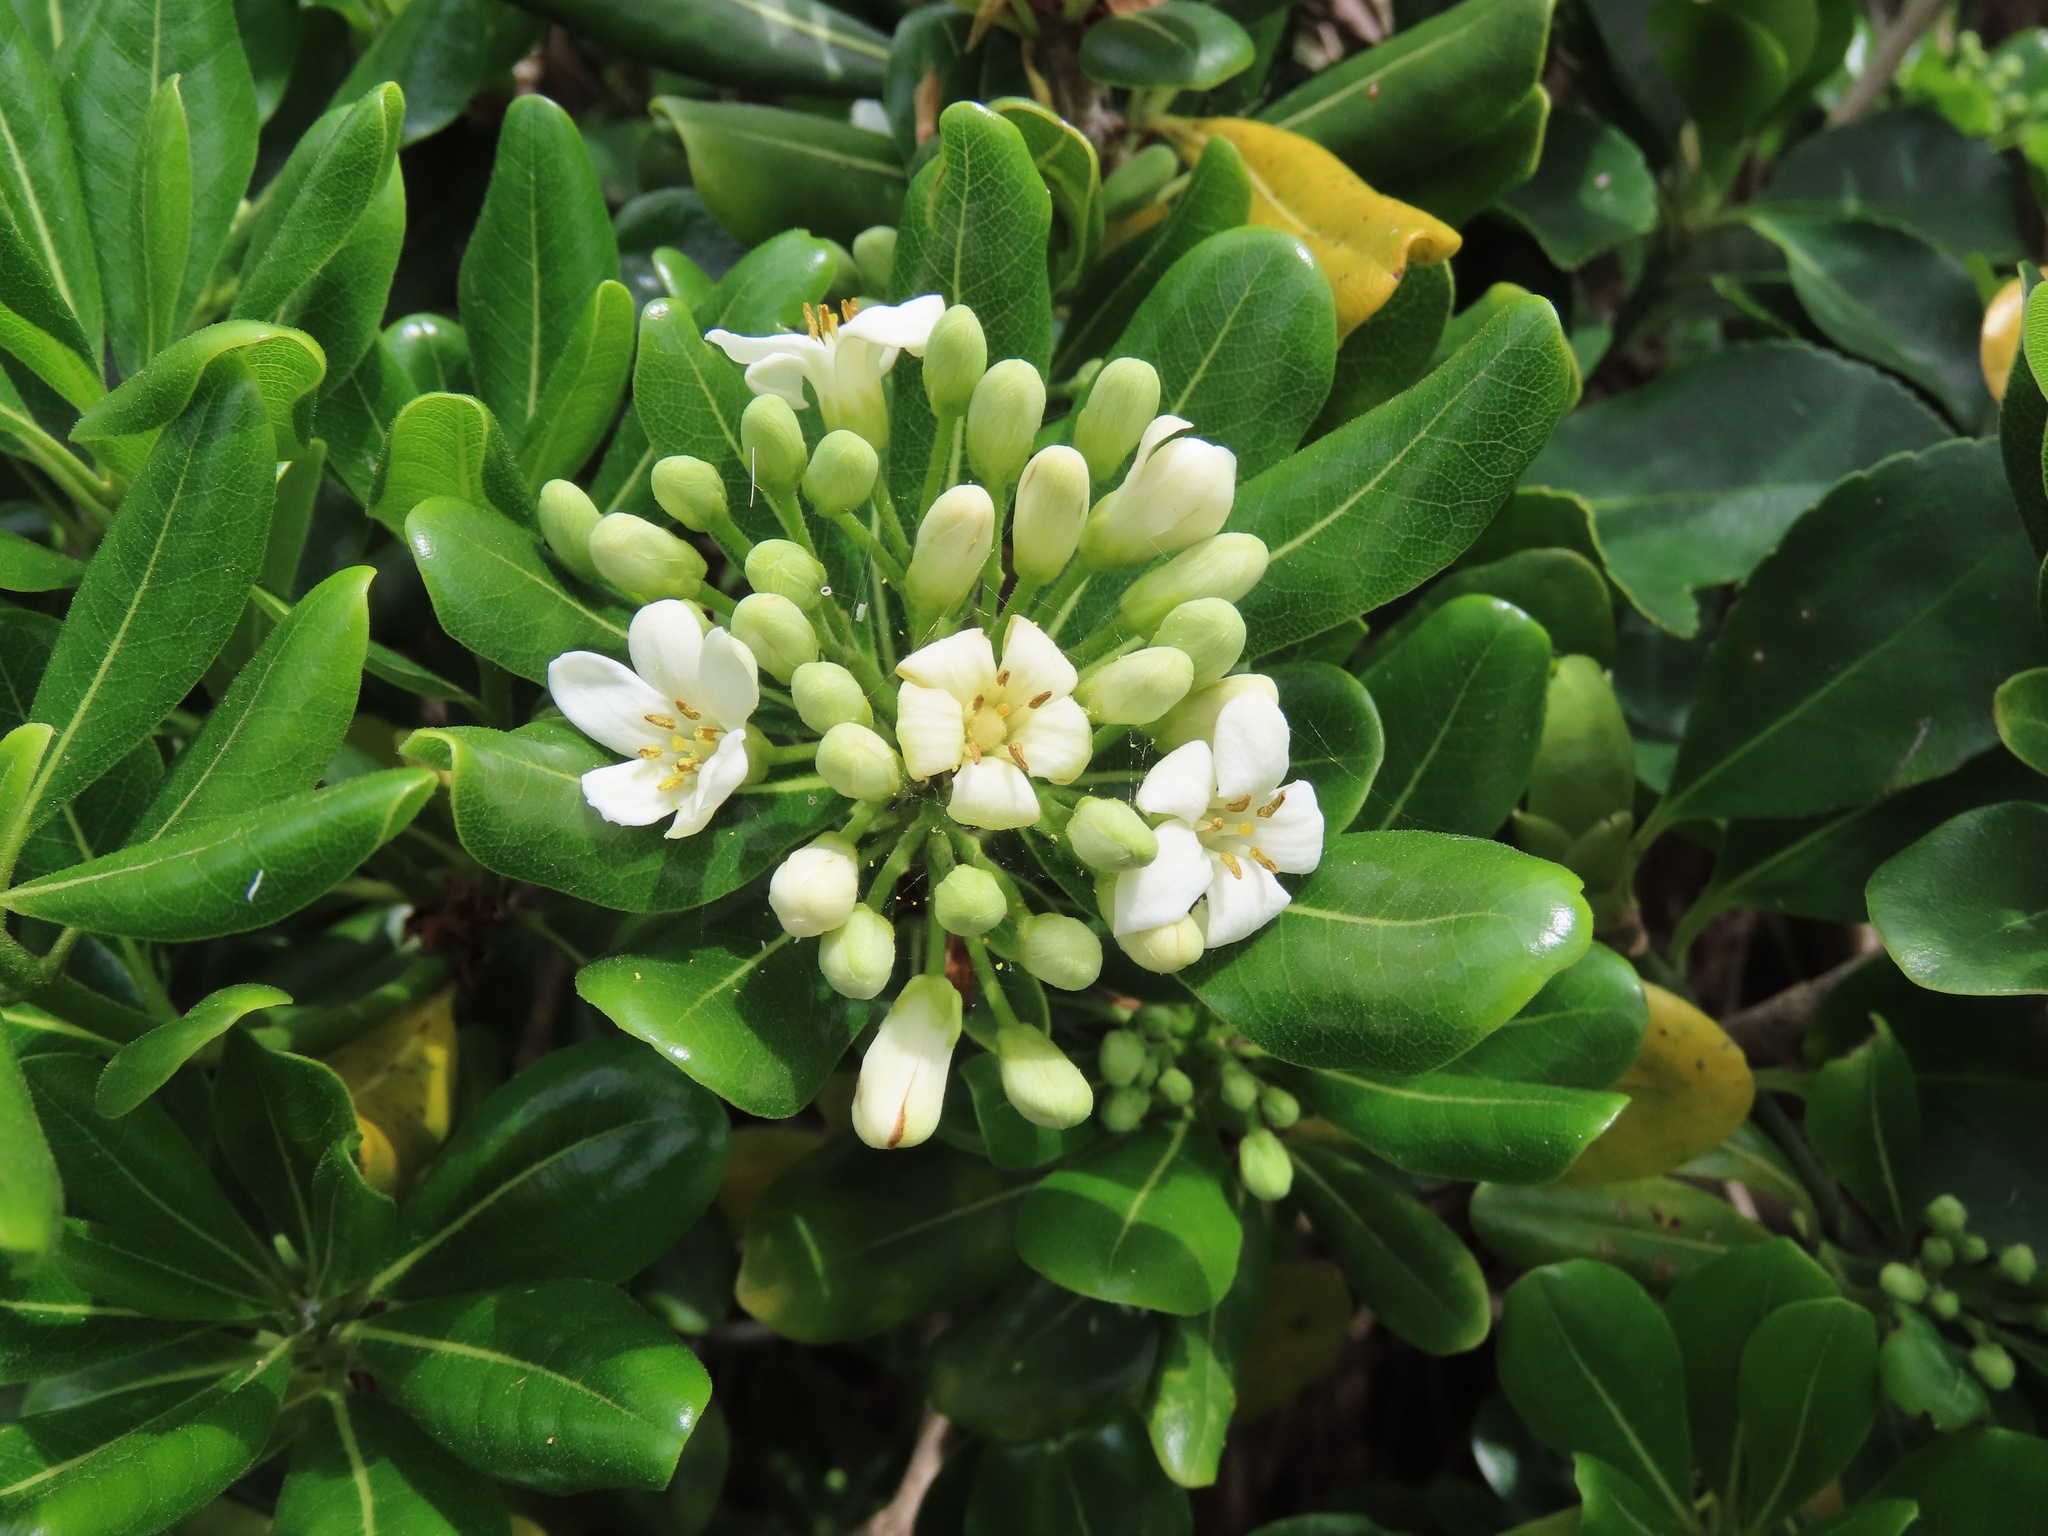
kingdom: Plantae
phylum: Tracheophyta
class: Magnoliopsida
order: Apiales
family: Pittosporaceae
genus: Pittosporum
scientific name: Pittosporum tobira
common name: Japanese cheesewood
